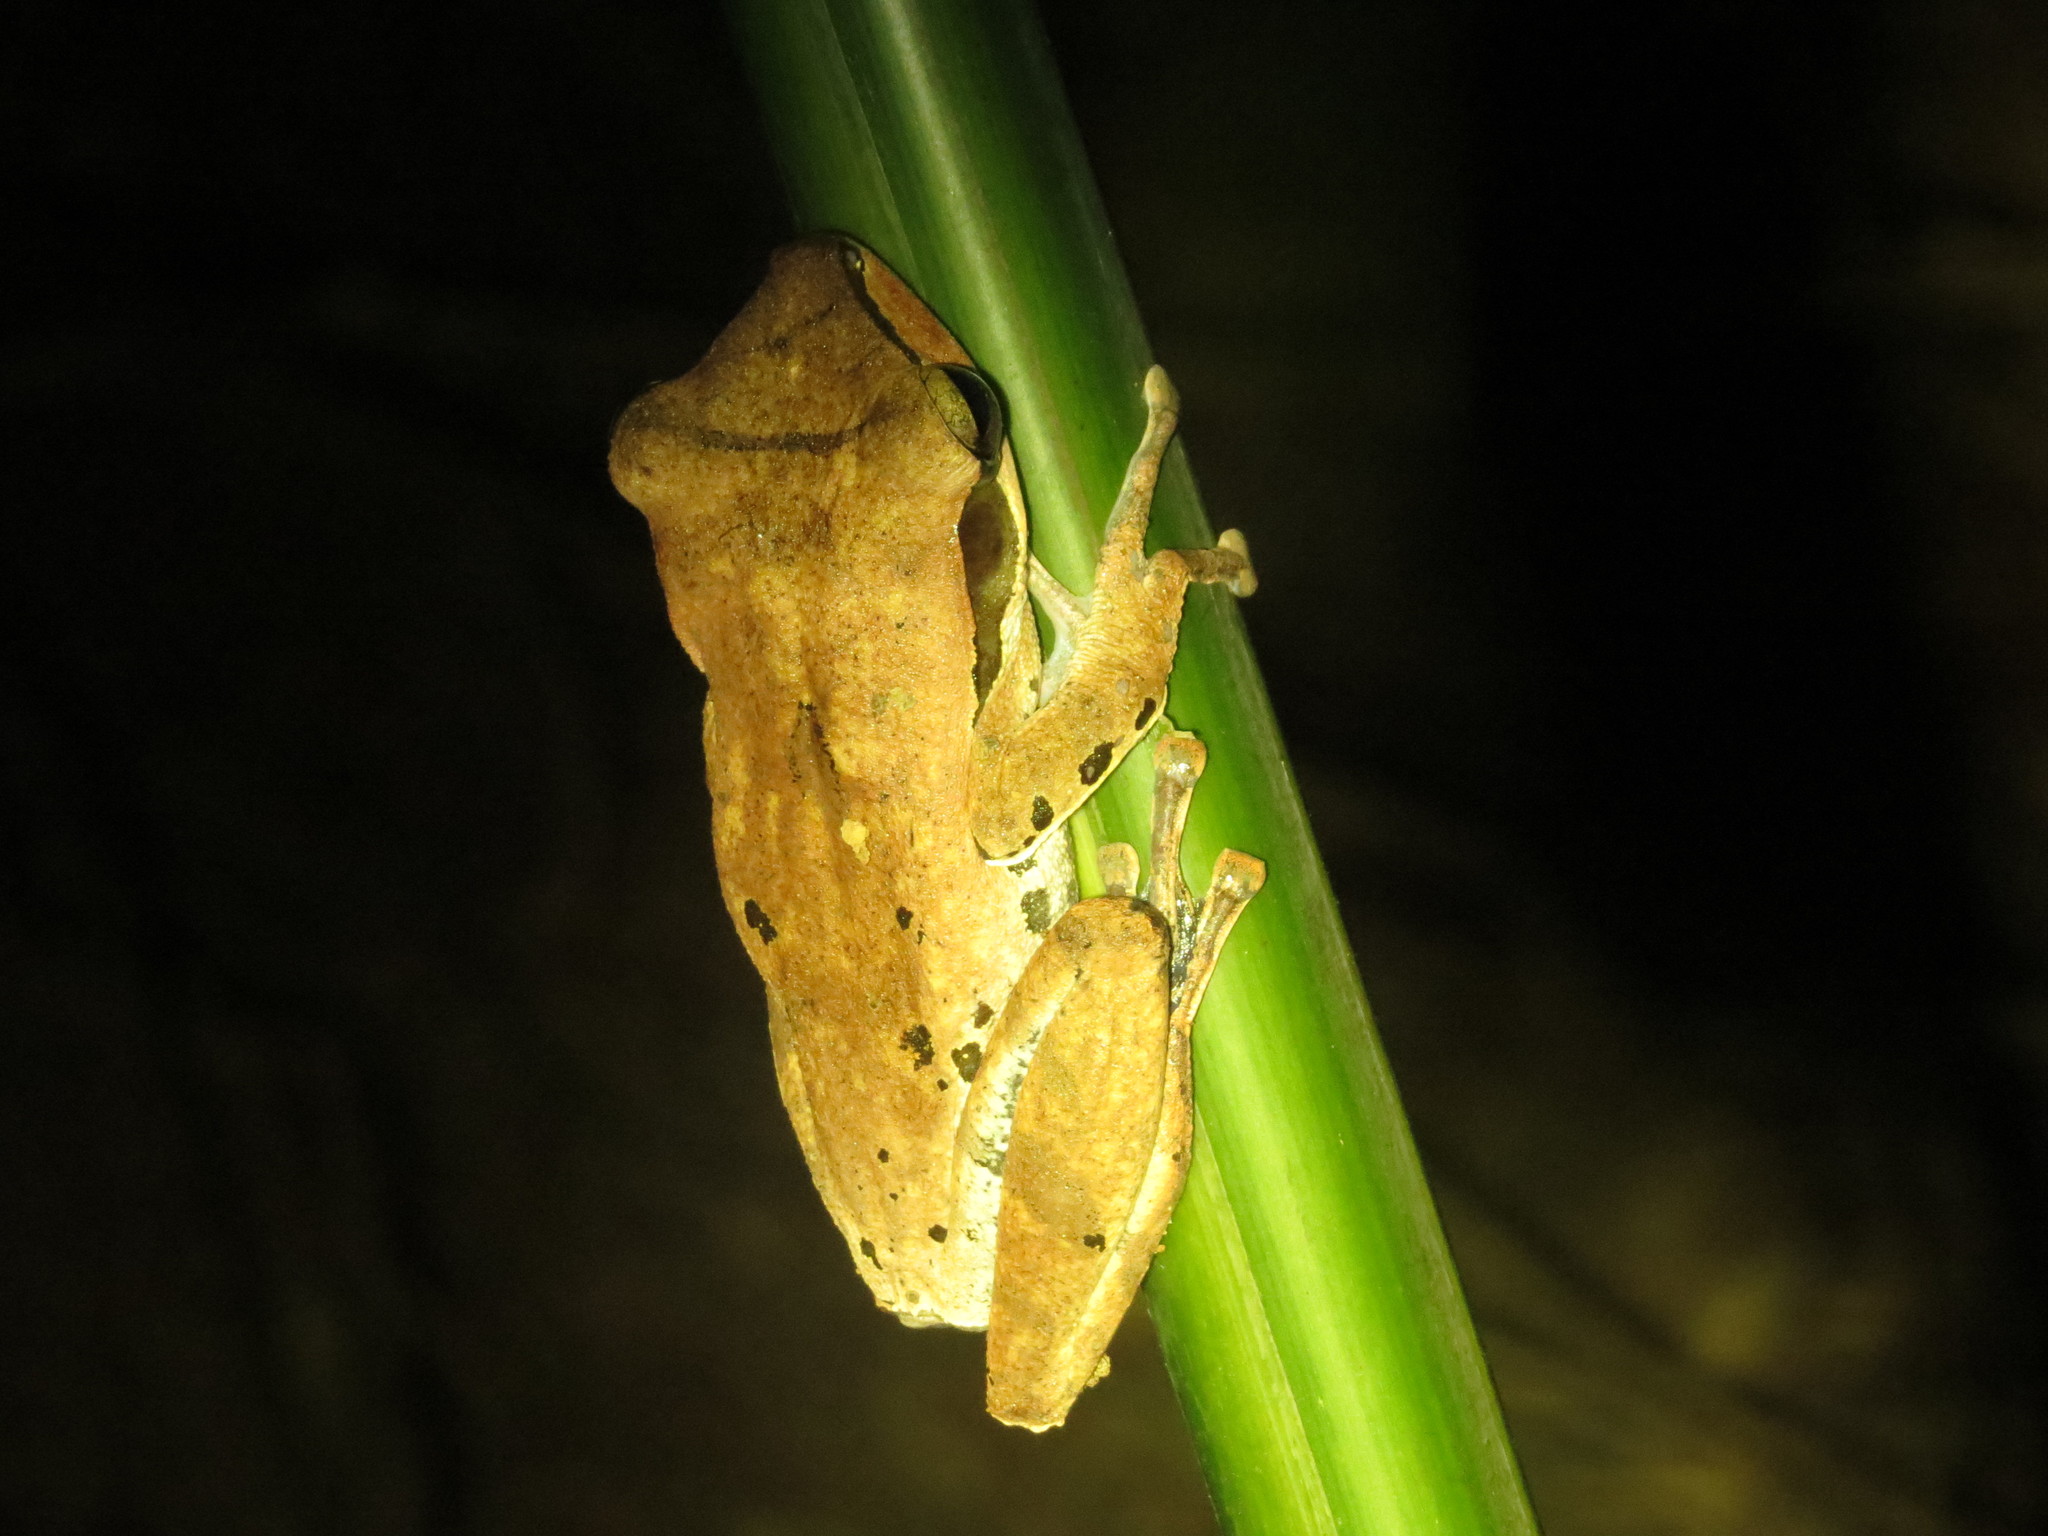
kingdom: Animalia
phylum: Chordata
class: Amphibia
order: Anura
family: Rhacophoridae
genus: Polypedates
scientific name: Polypedates macrotis
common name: Dark-eared tree frog
